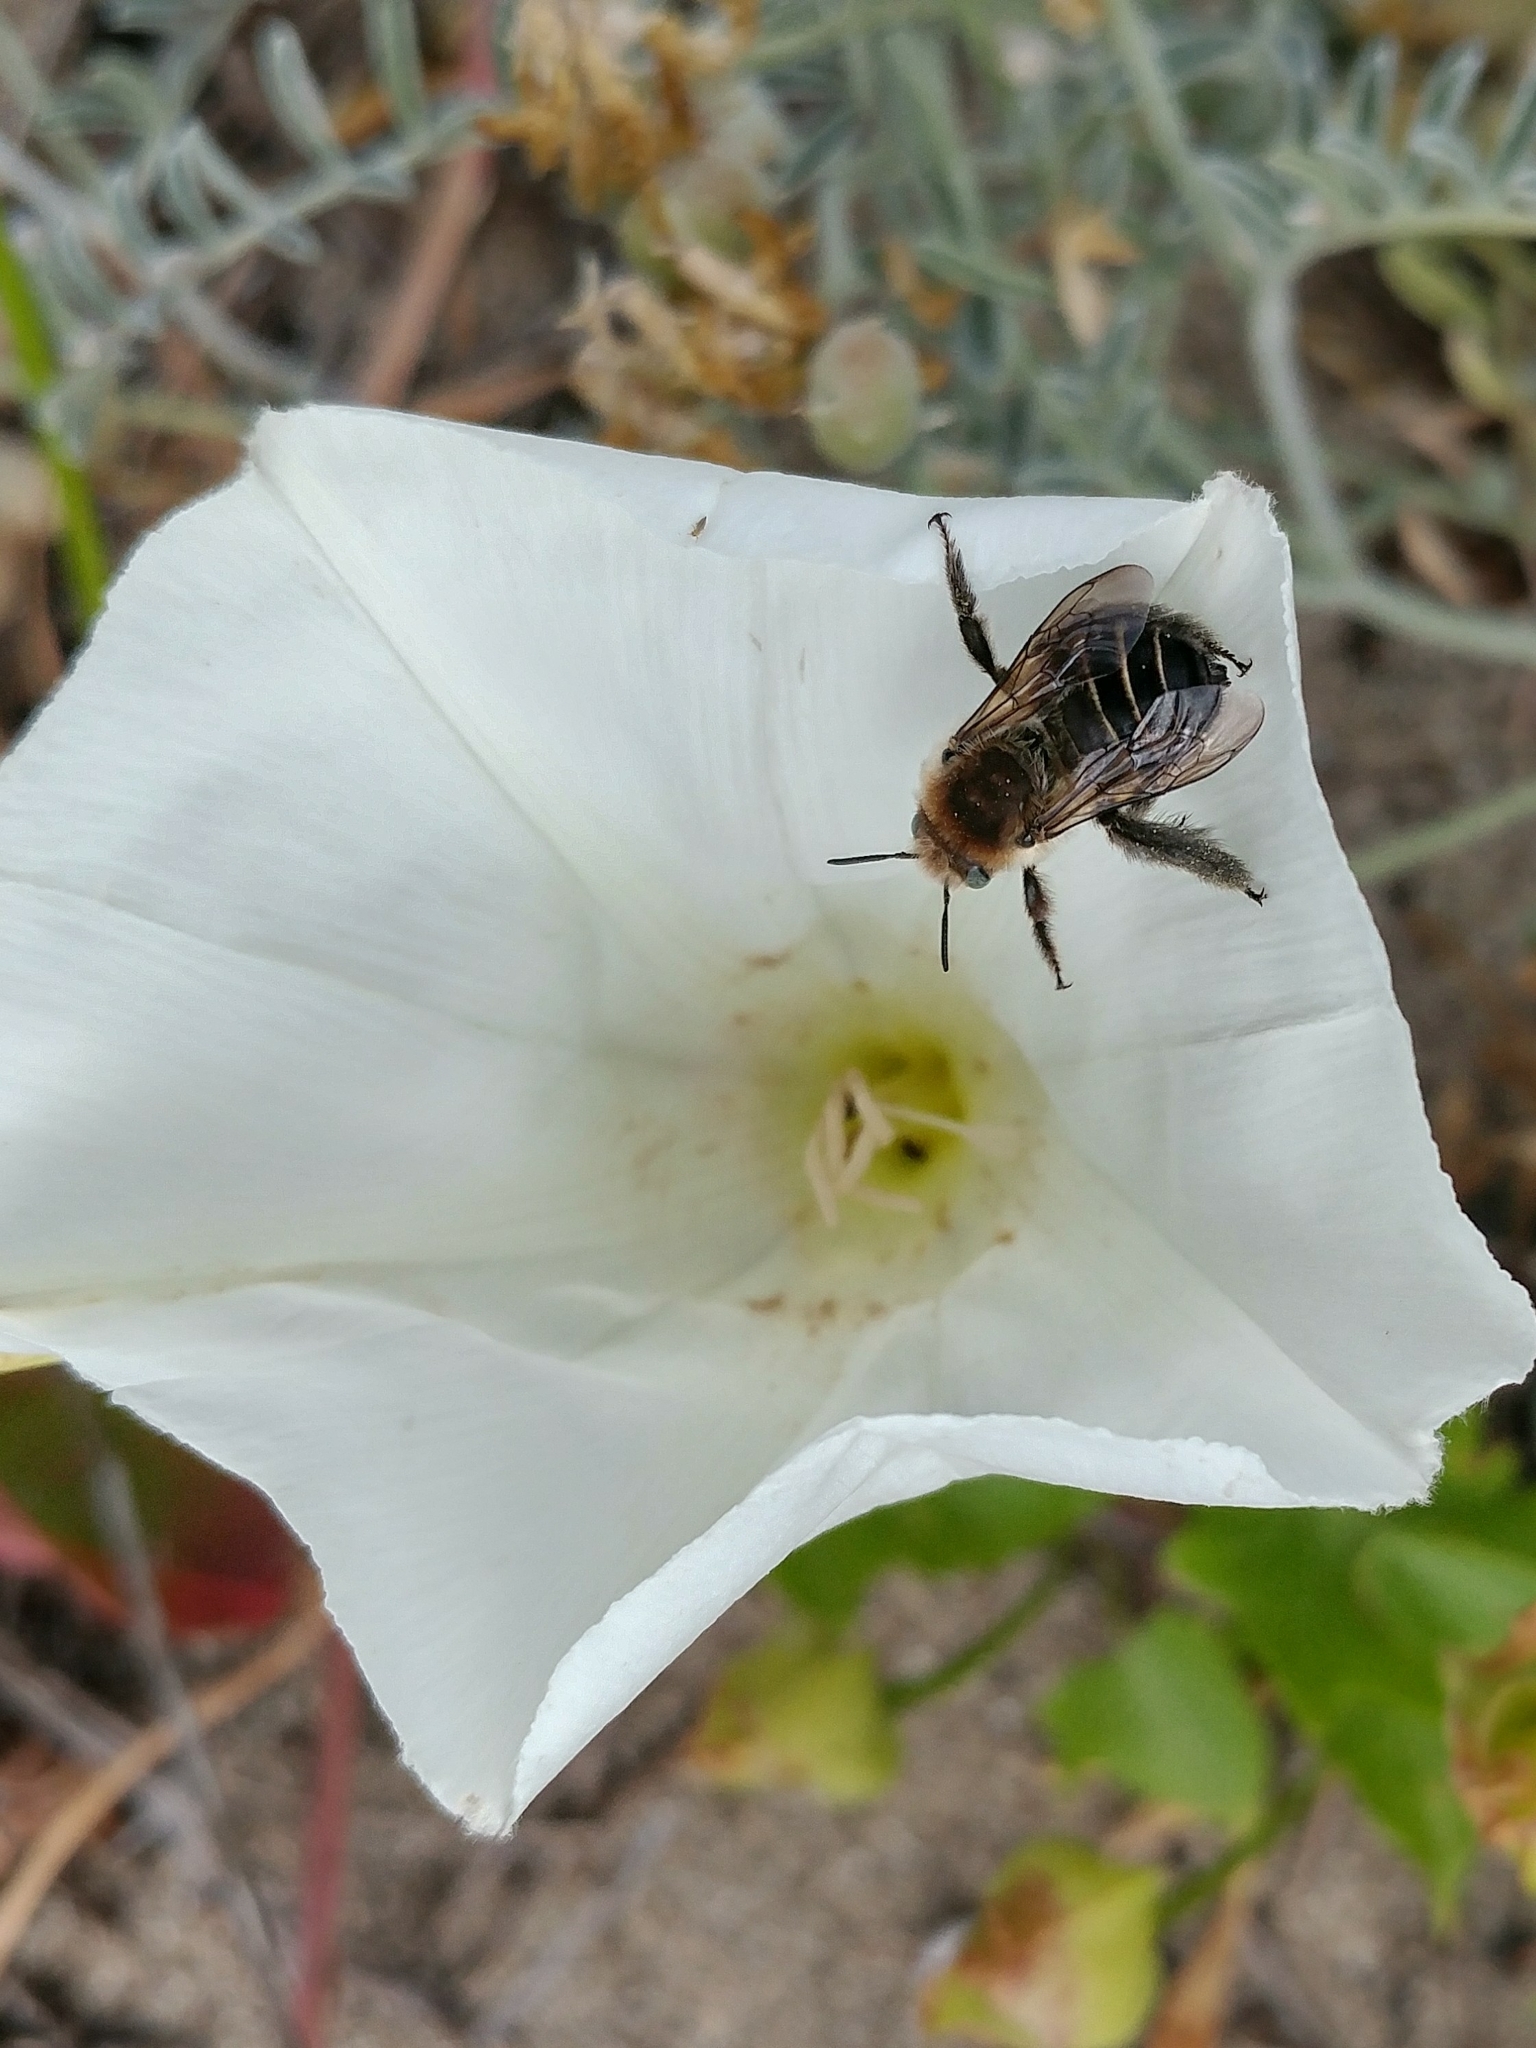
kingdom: Plantae
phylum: Tracheophyta
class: Magnoliopsida
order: Solanales
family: Convolvulaceae
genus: Calystegia
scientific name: Calystegia macrostegia
